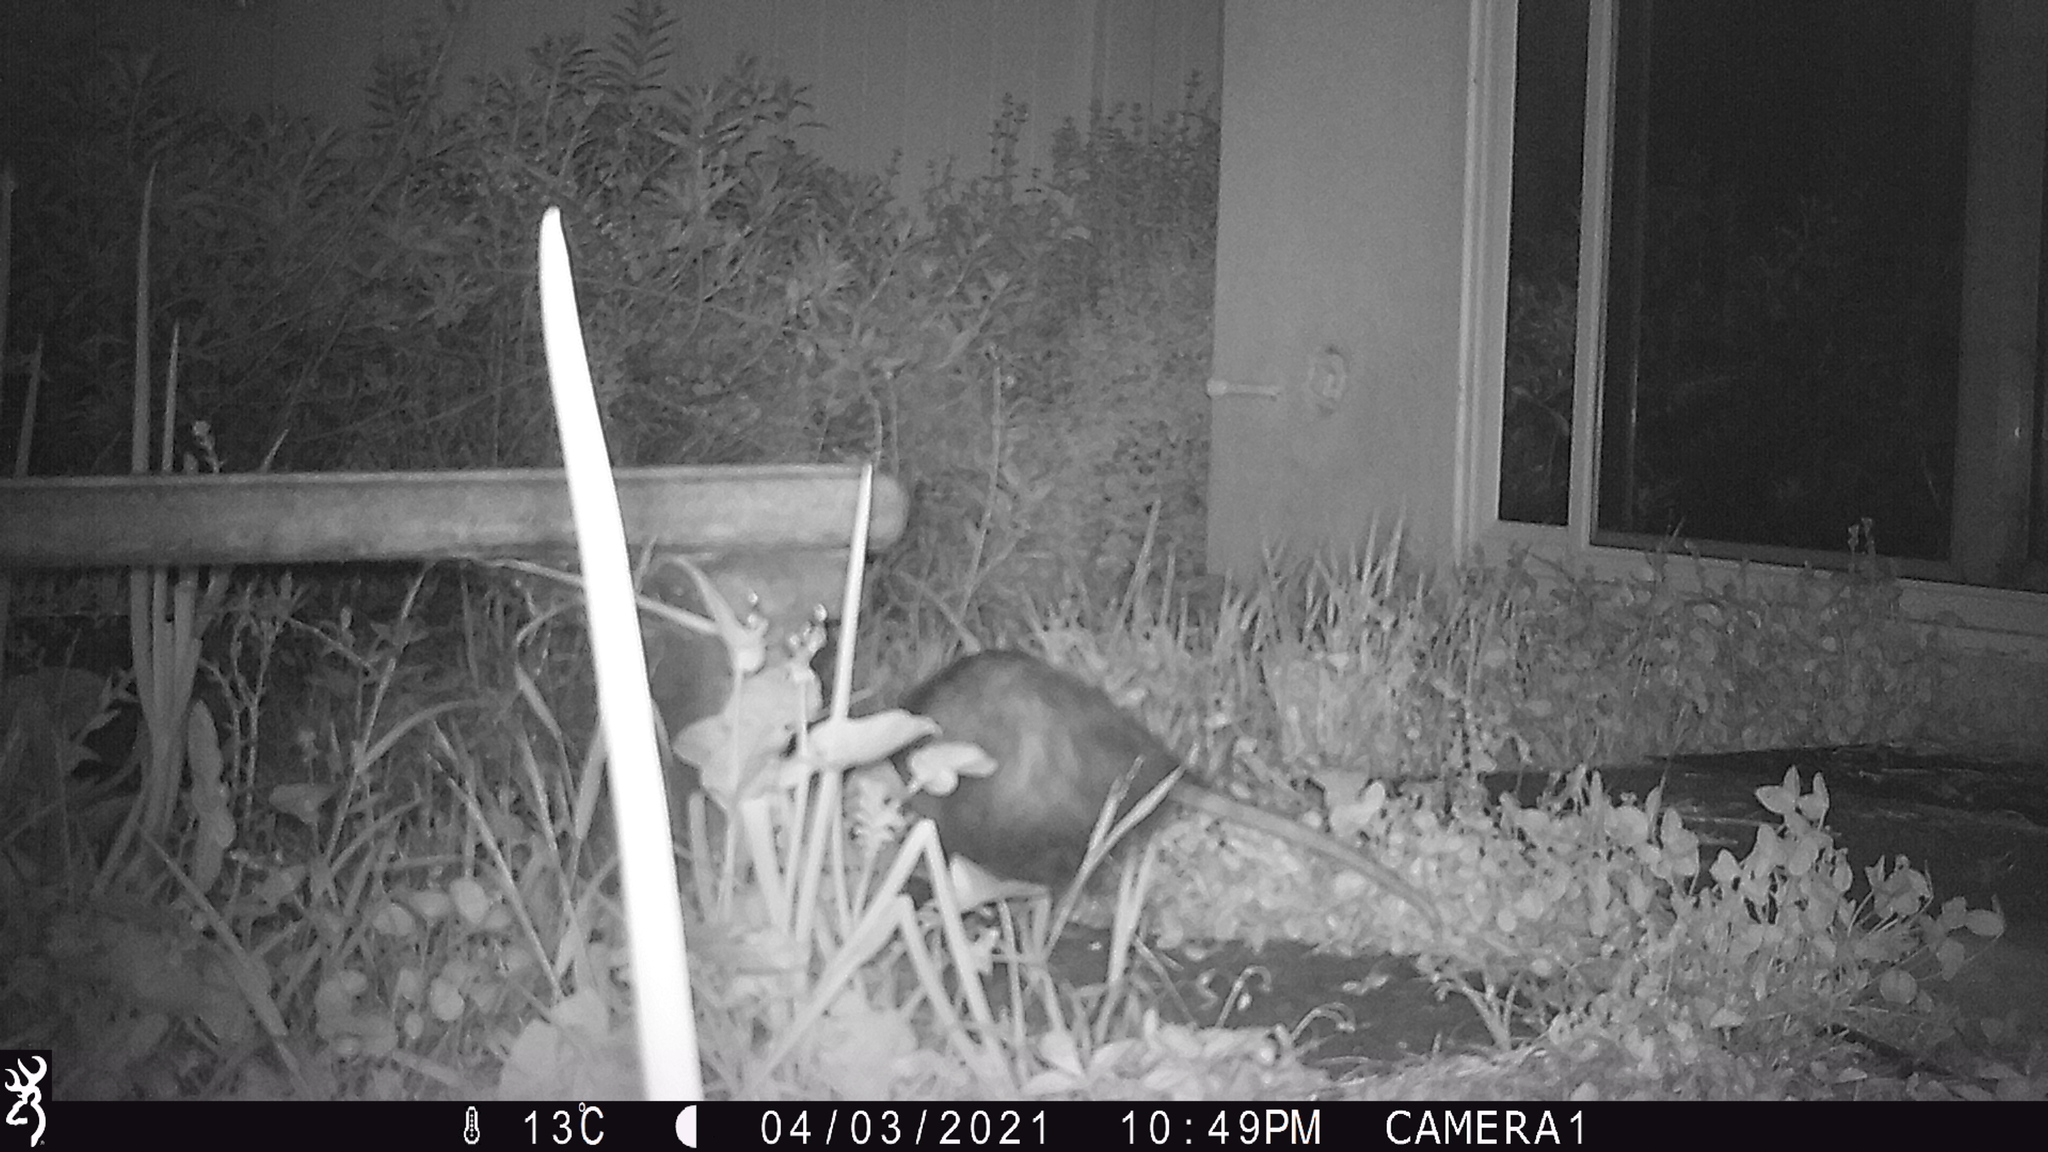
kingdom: Animalia
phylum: Chordata
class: Mammalia
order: Didelphimorphia
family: Didelphidae
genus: Didelphis
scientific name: Didelphis virginiana
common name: Virginia opossum
